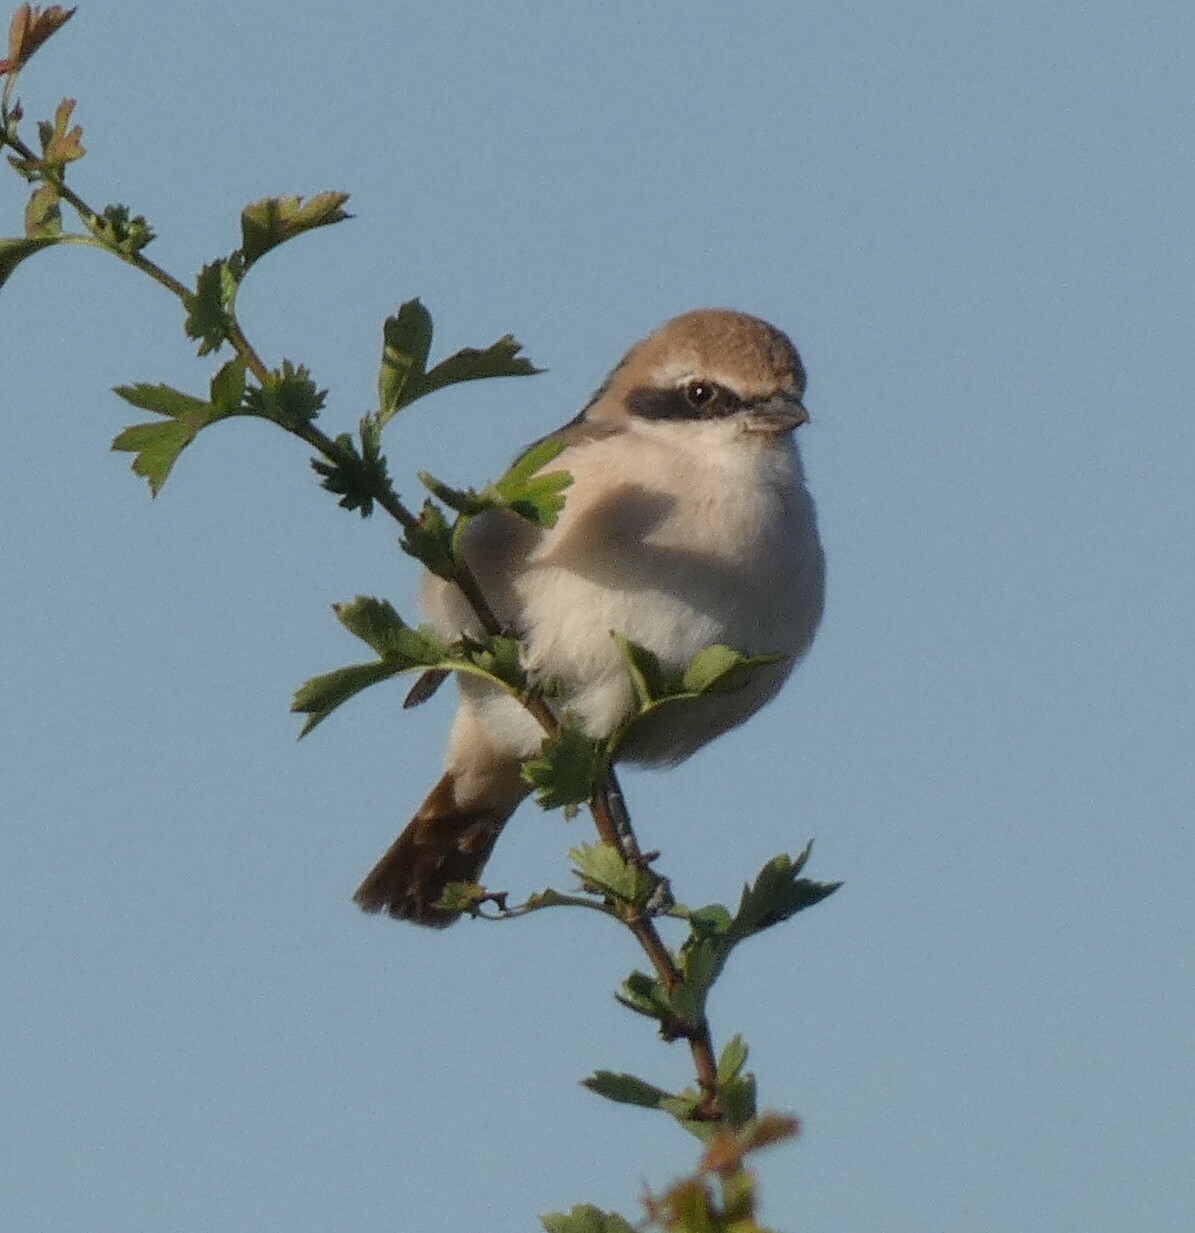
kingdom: Animalia
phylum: Chordata
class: Aves
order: Passeriformes
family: Laniidae
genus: Lanius
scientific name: Lanius phoenicuroides
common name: Red-tailed shrike
